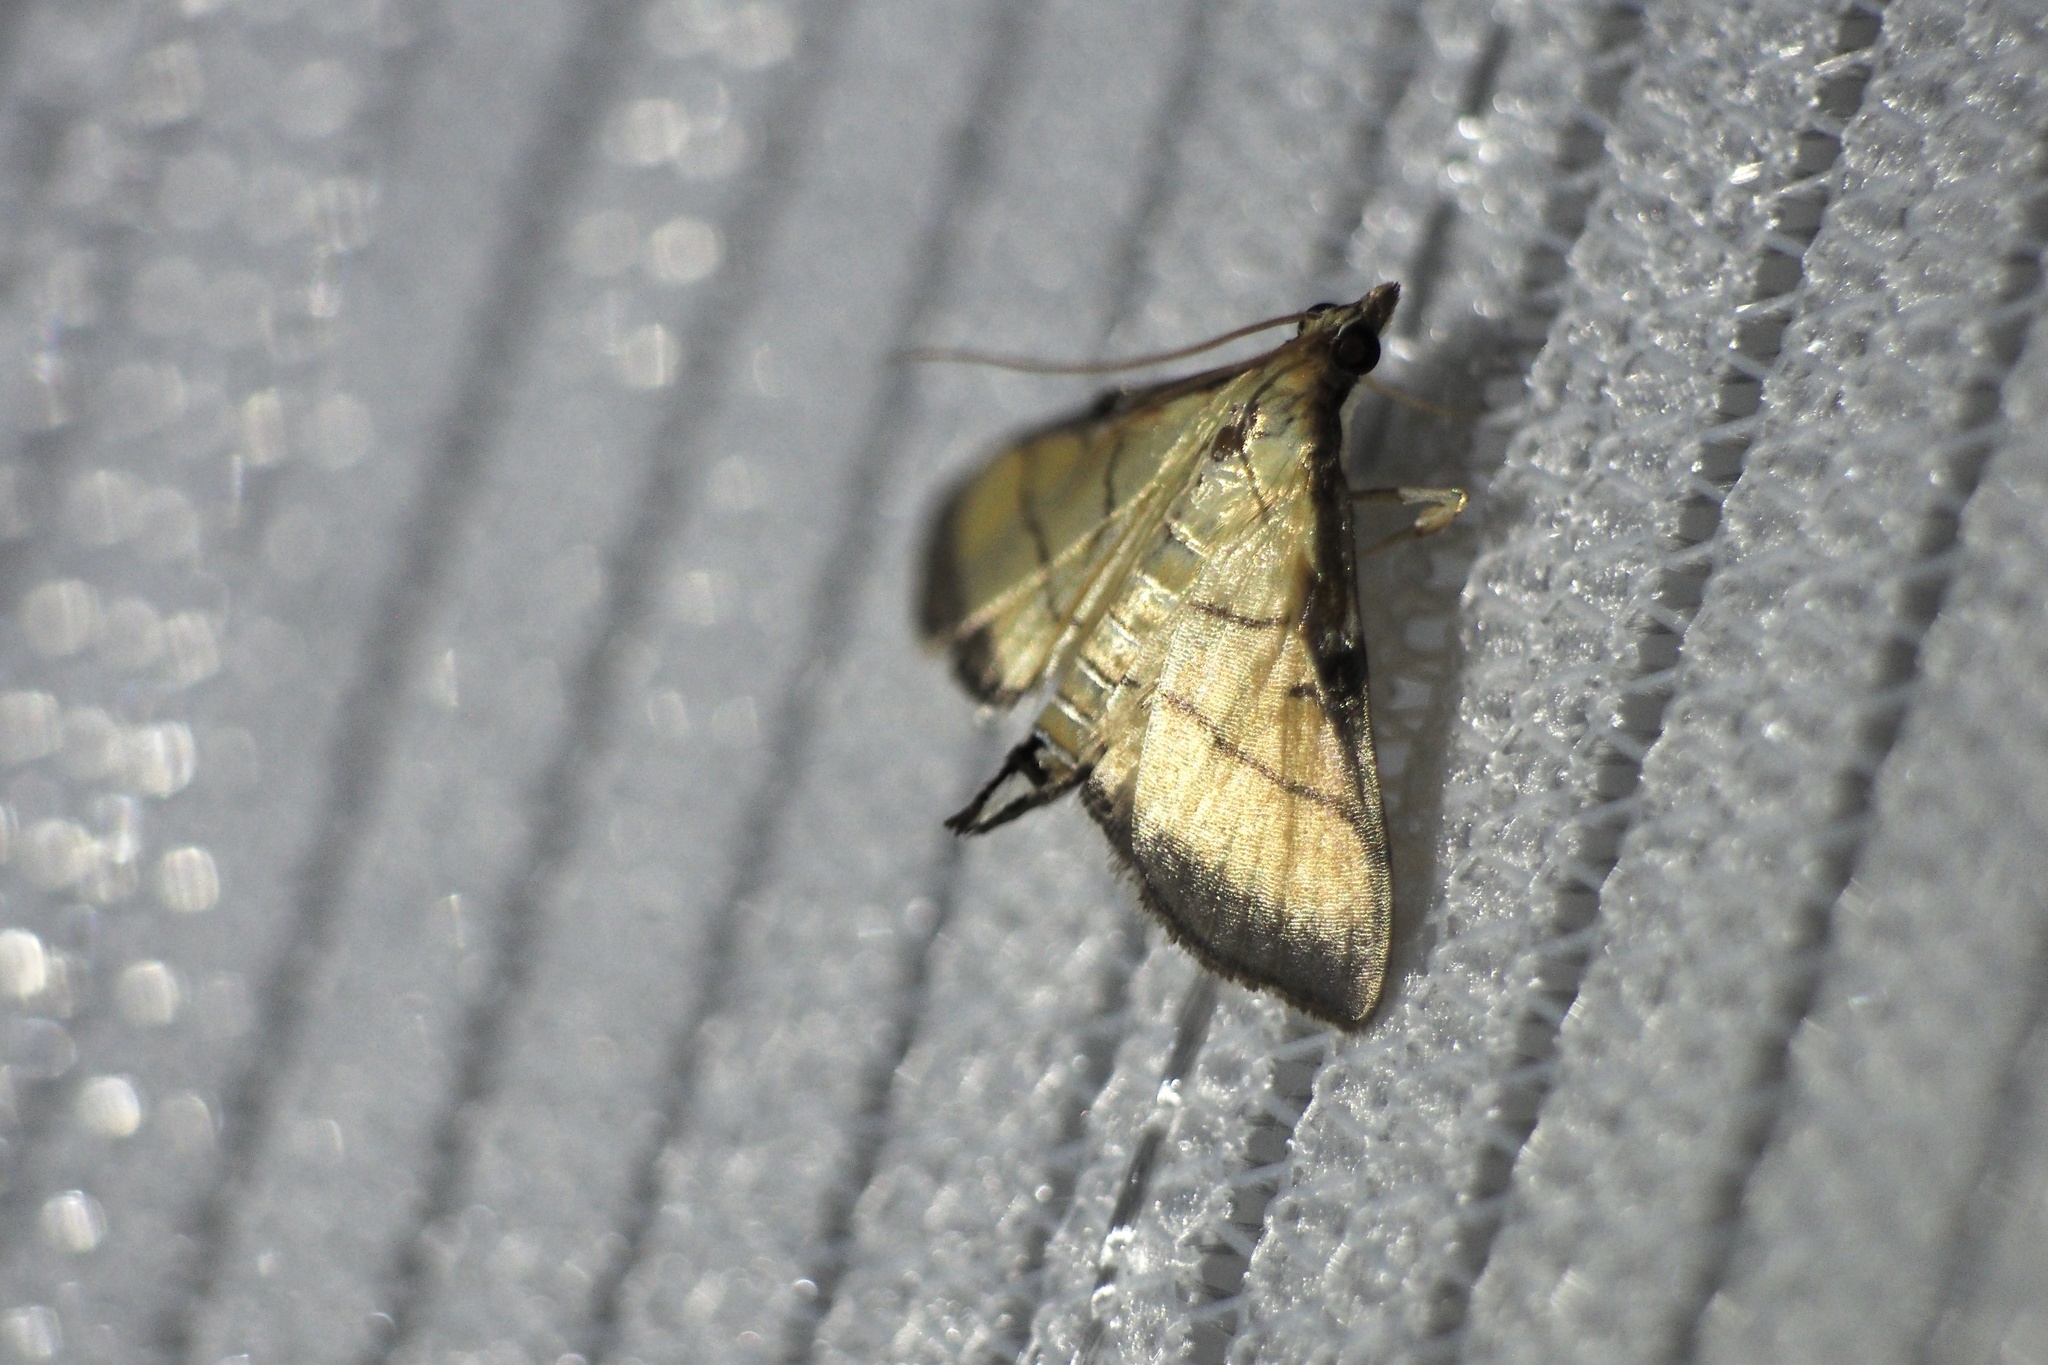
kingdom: Animalia
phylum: Arthropoda
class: Insecta
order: Lepidoptera
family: Crambidae
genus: Cnaphalocrocis
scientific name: Cnaphalocrocis medinalis
